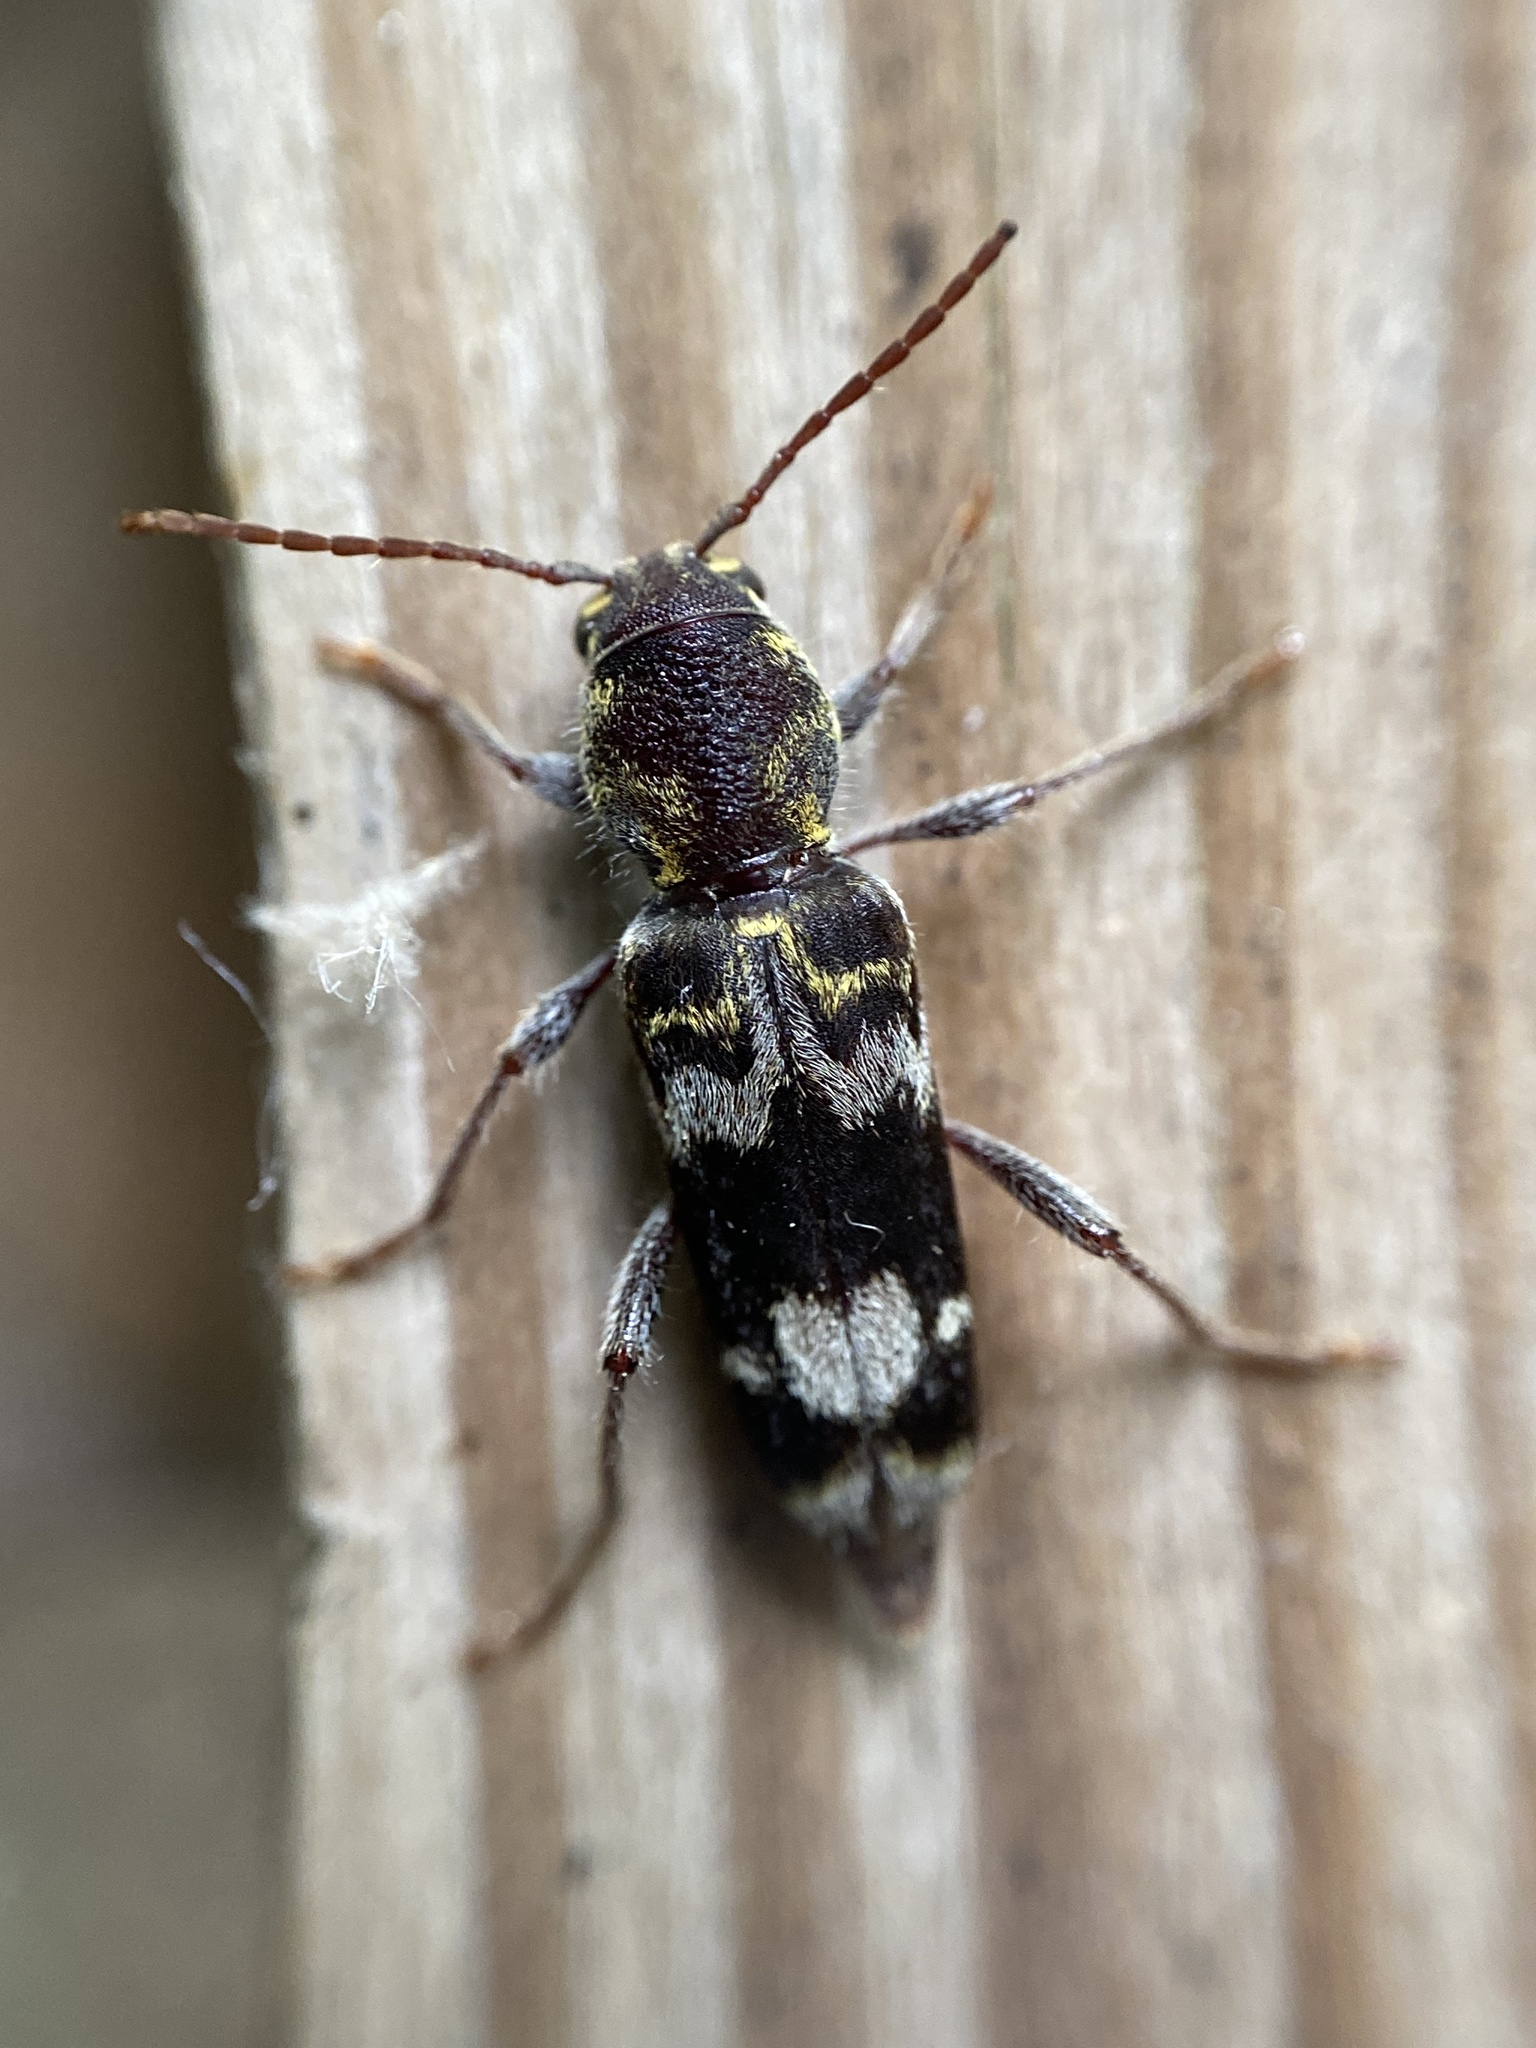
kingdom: Animalia
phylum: Arthropoda
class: Insecta
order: Coleoptera
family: Cerambycidae
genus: Xylotrechus
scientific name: Xylotrechus colonus
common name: Long-horned beetle
